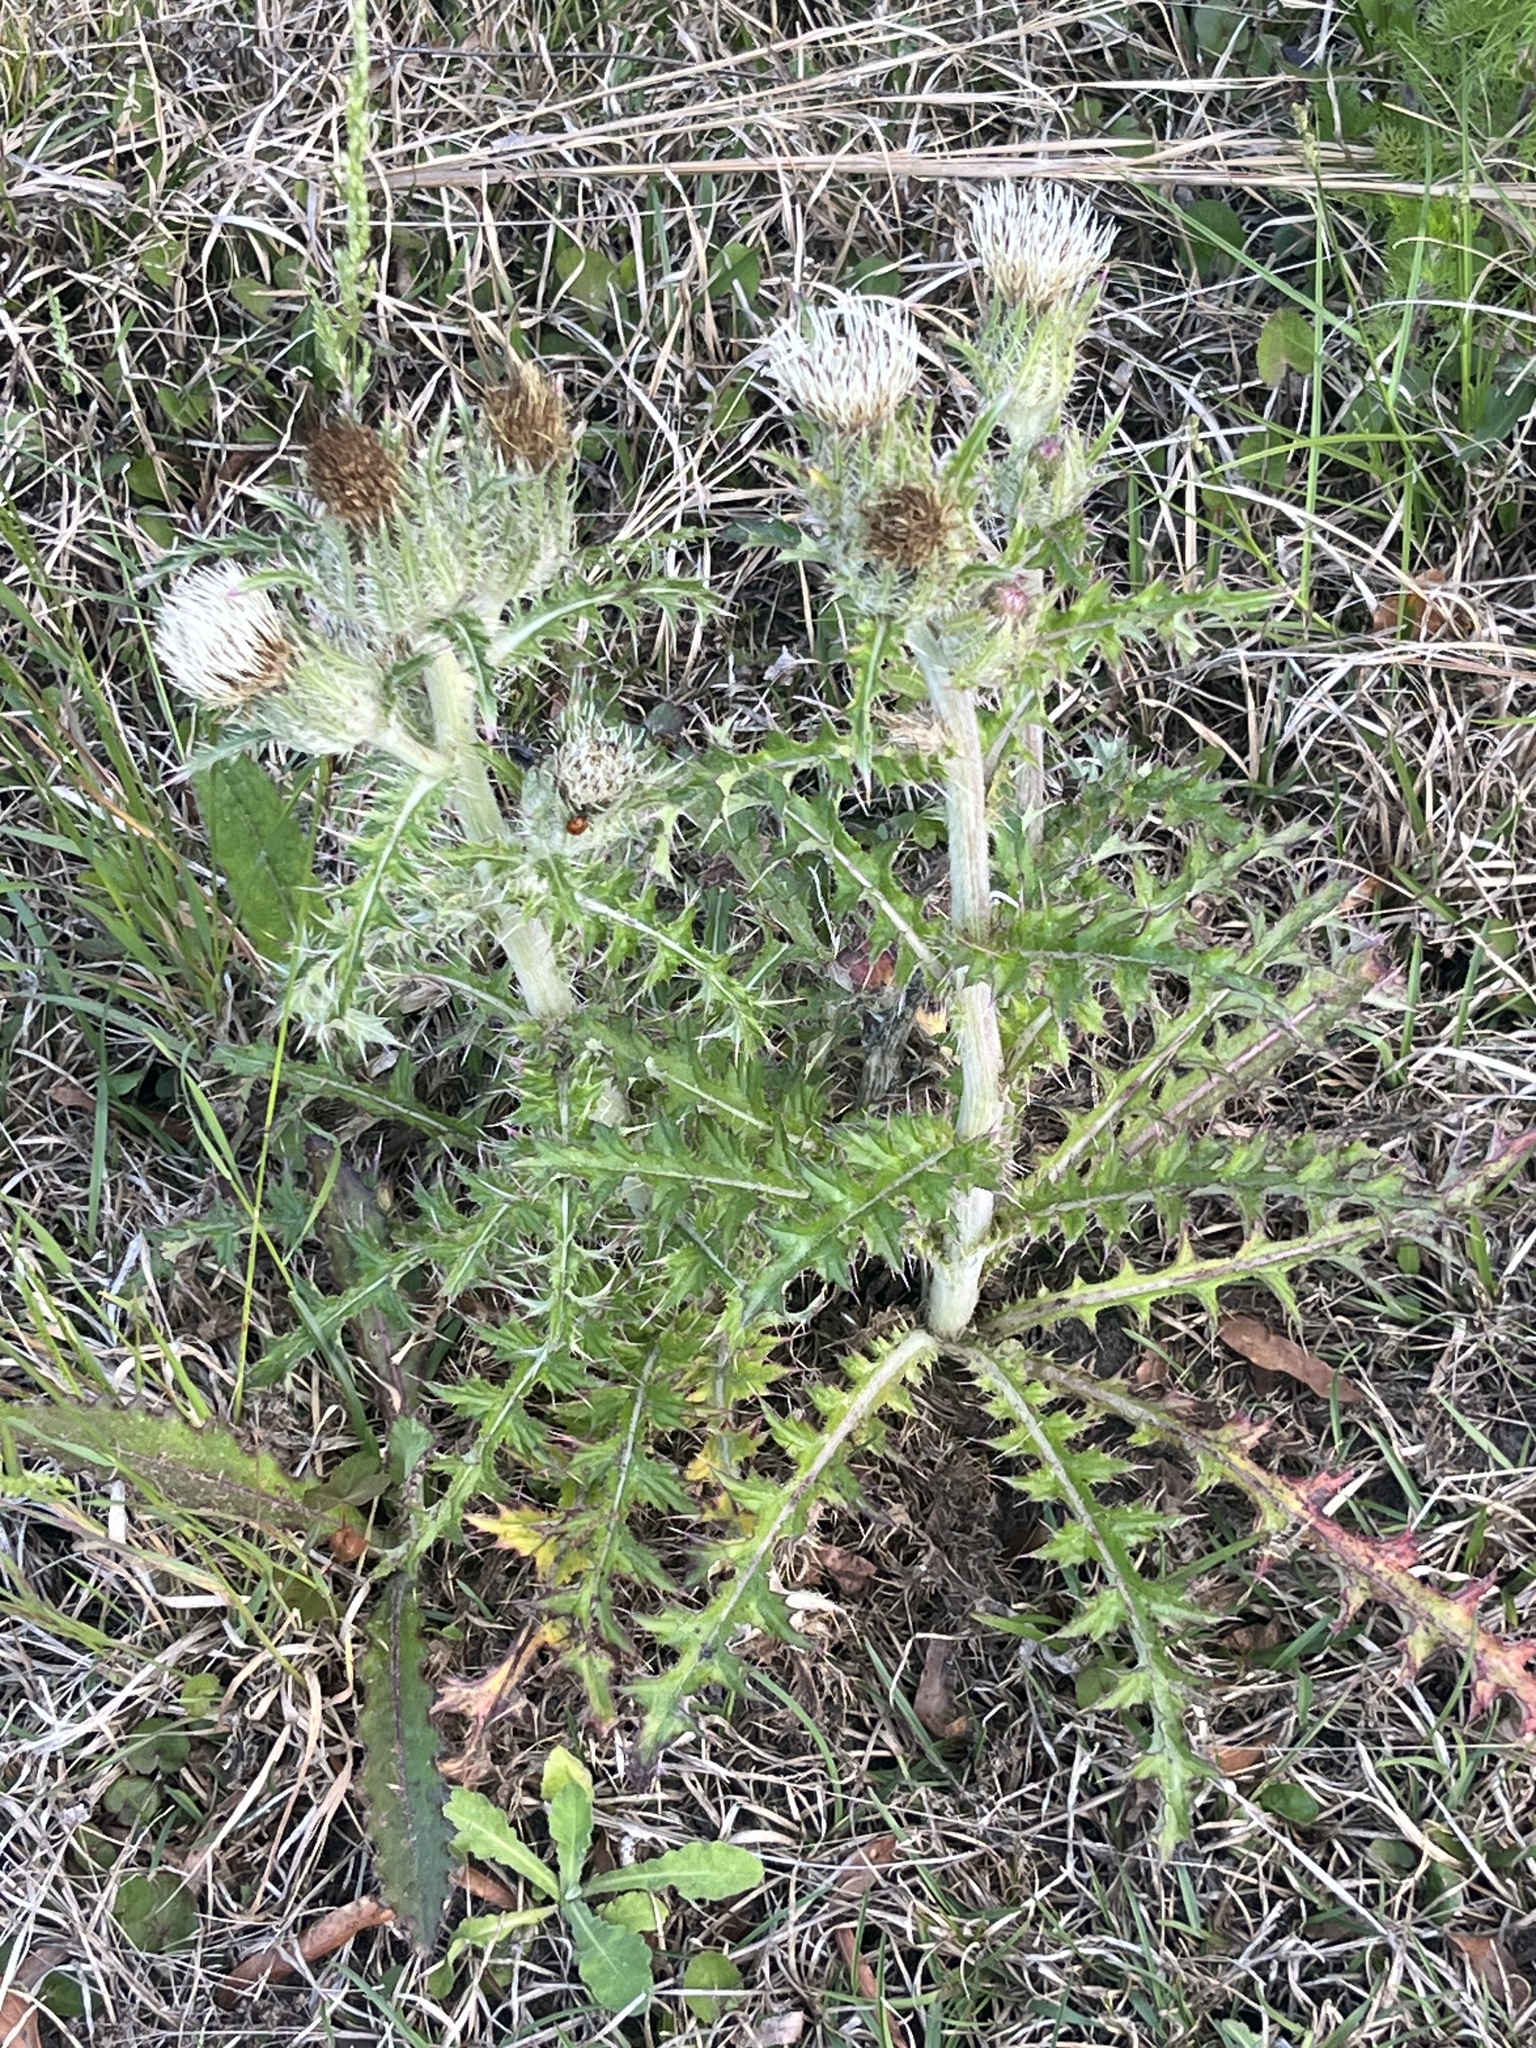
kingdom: Plantae
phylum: Tracheophyta
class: Magnoliopsida
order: Asterales
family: Asteraceae
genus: Cirsium
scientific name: Cirsium horridulum
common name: Bristly thistle
